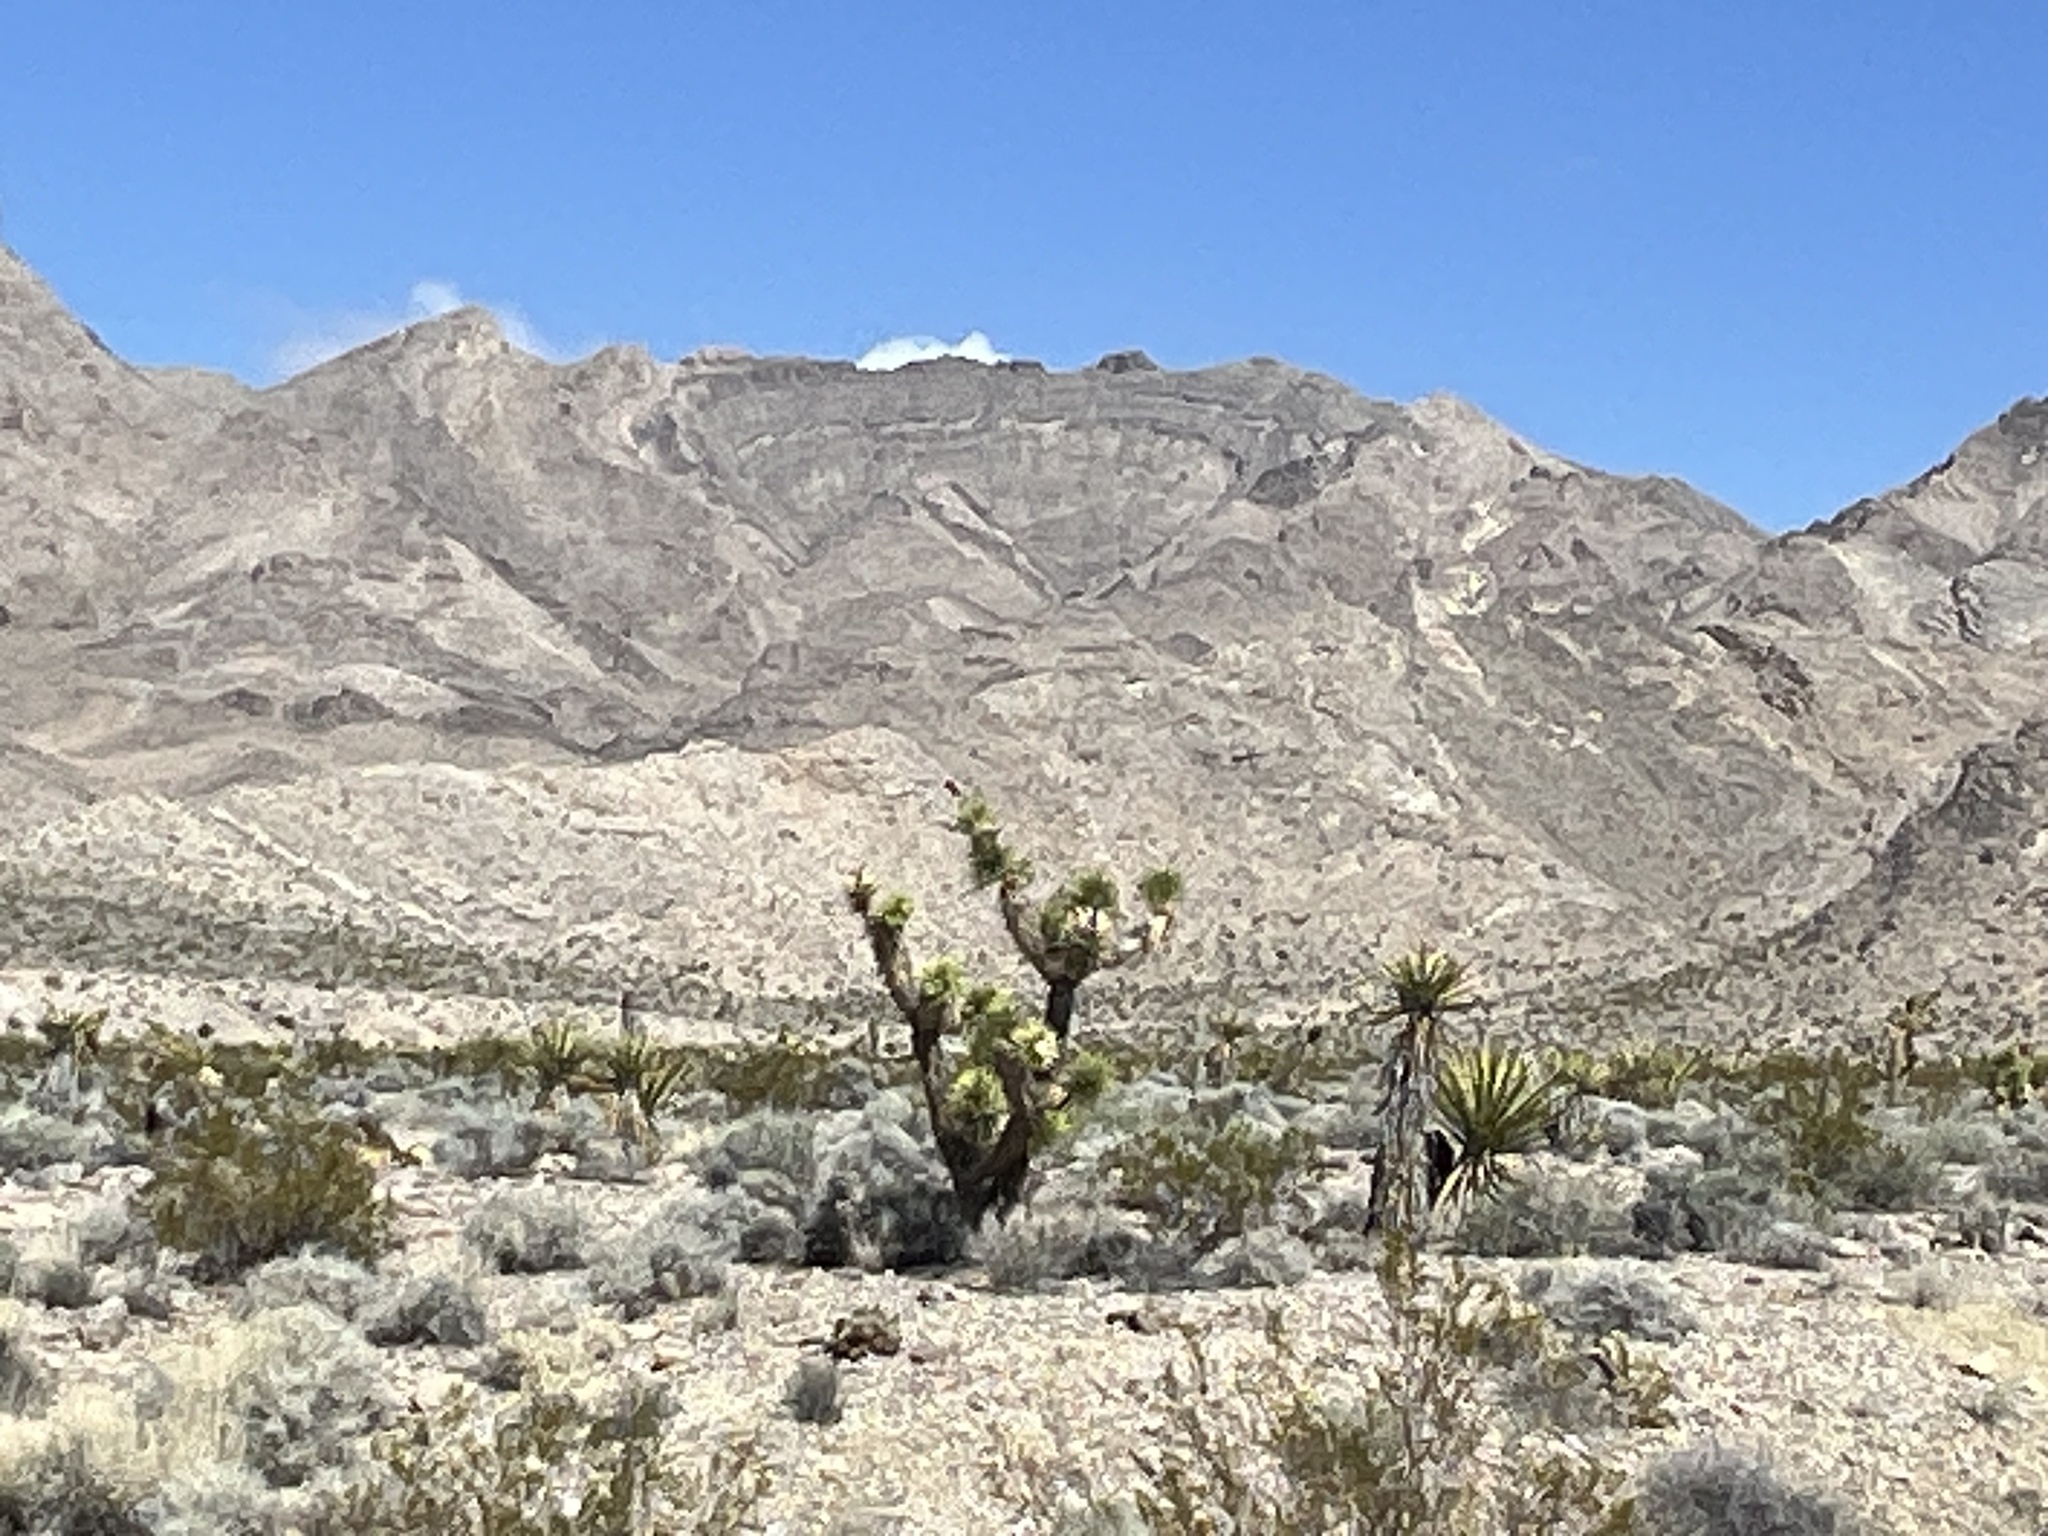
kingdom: Plantae
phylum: Tracheophyta
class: Liliopsida
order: Asparagales
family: Asparagaceae
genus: Yucca
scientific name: Yucca brevifolia
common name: Joshua tree
